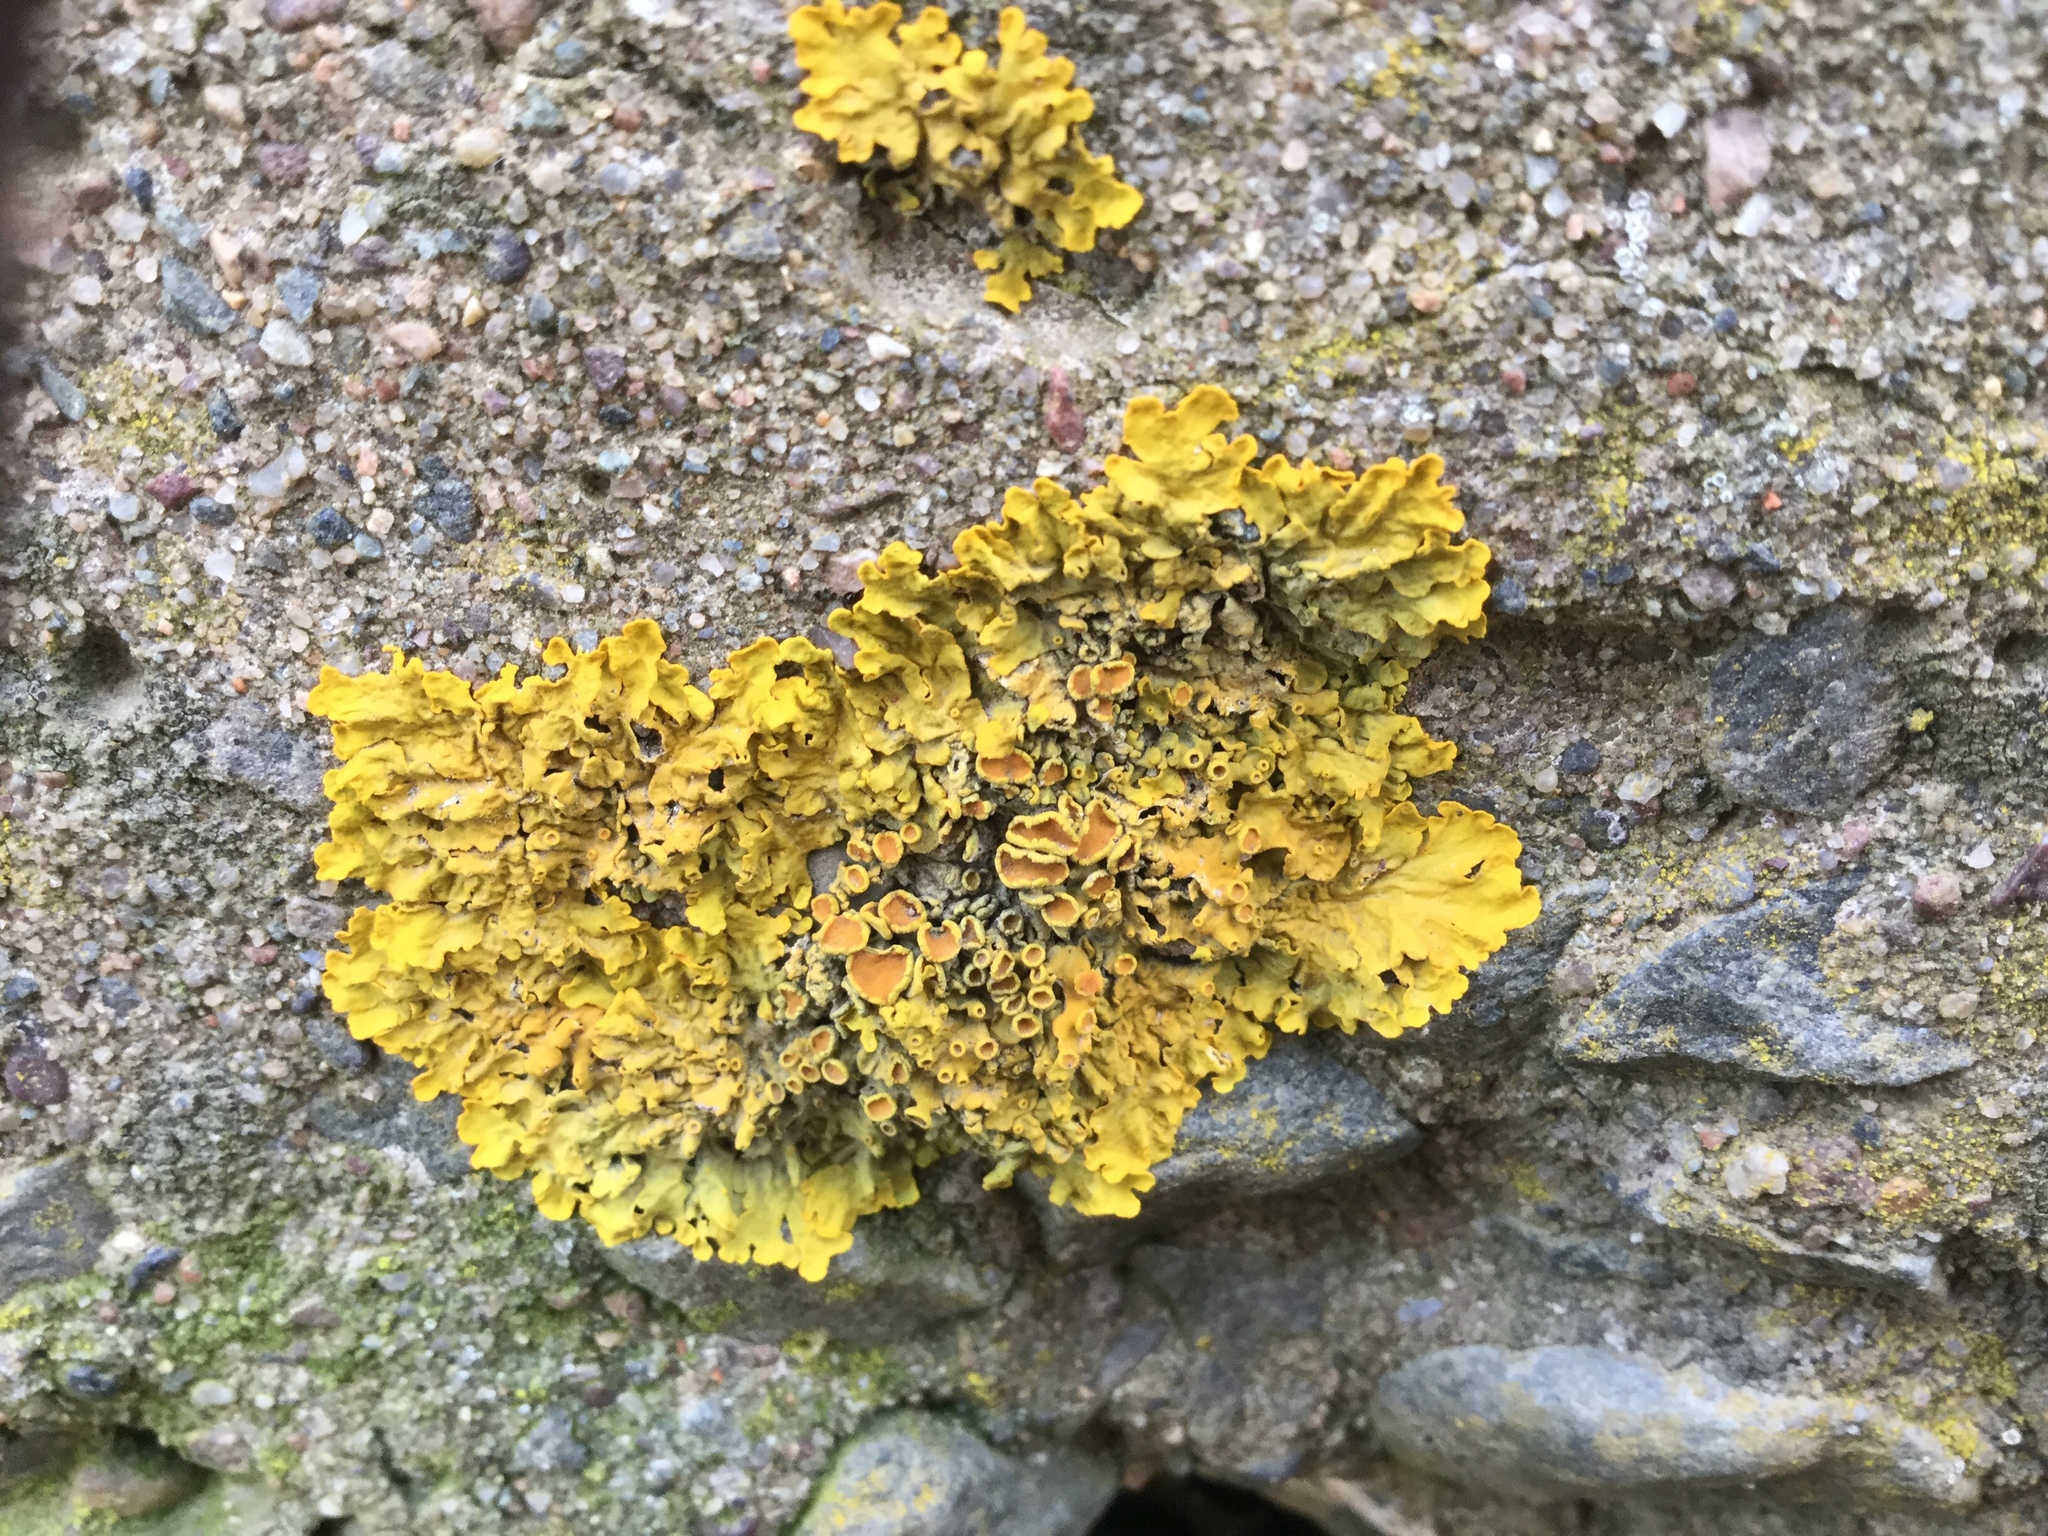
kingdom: Fungi
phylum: Ascomycota
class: Lecanoromycetes
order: Teloschistales
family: Teloschistaceae
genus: Xanthoria
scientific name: Xanthoria parietina
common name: Common orange lichen
